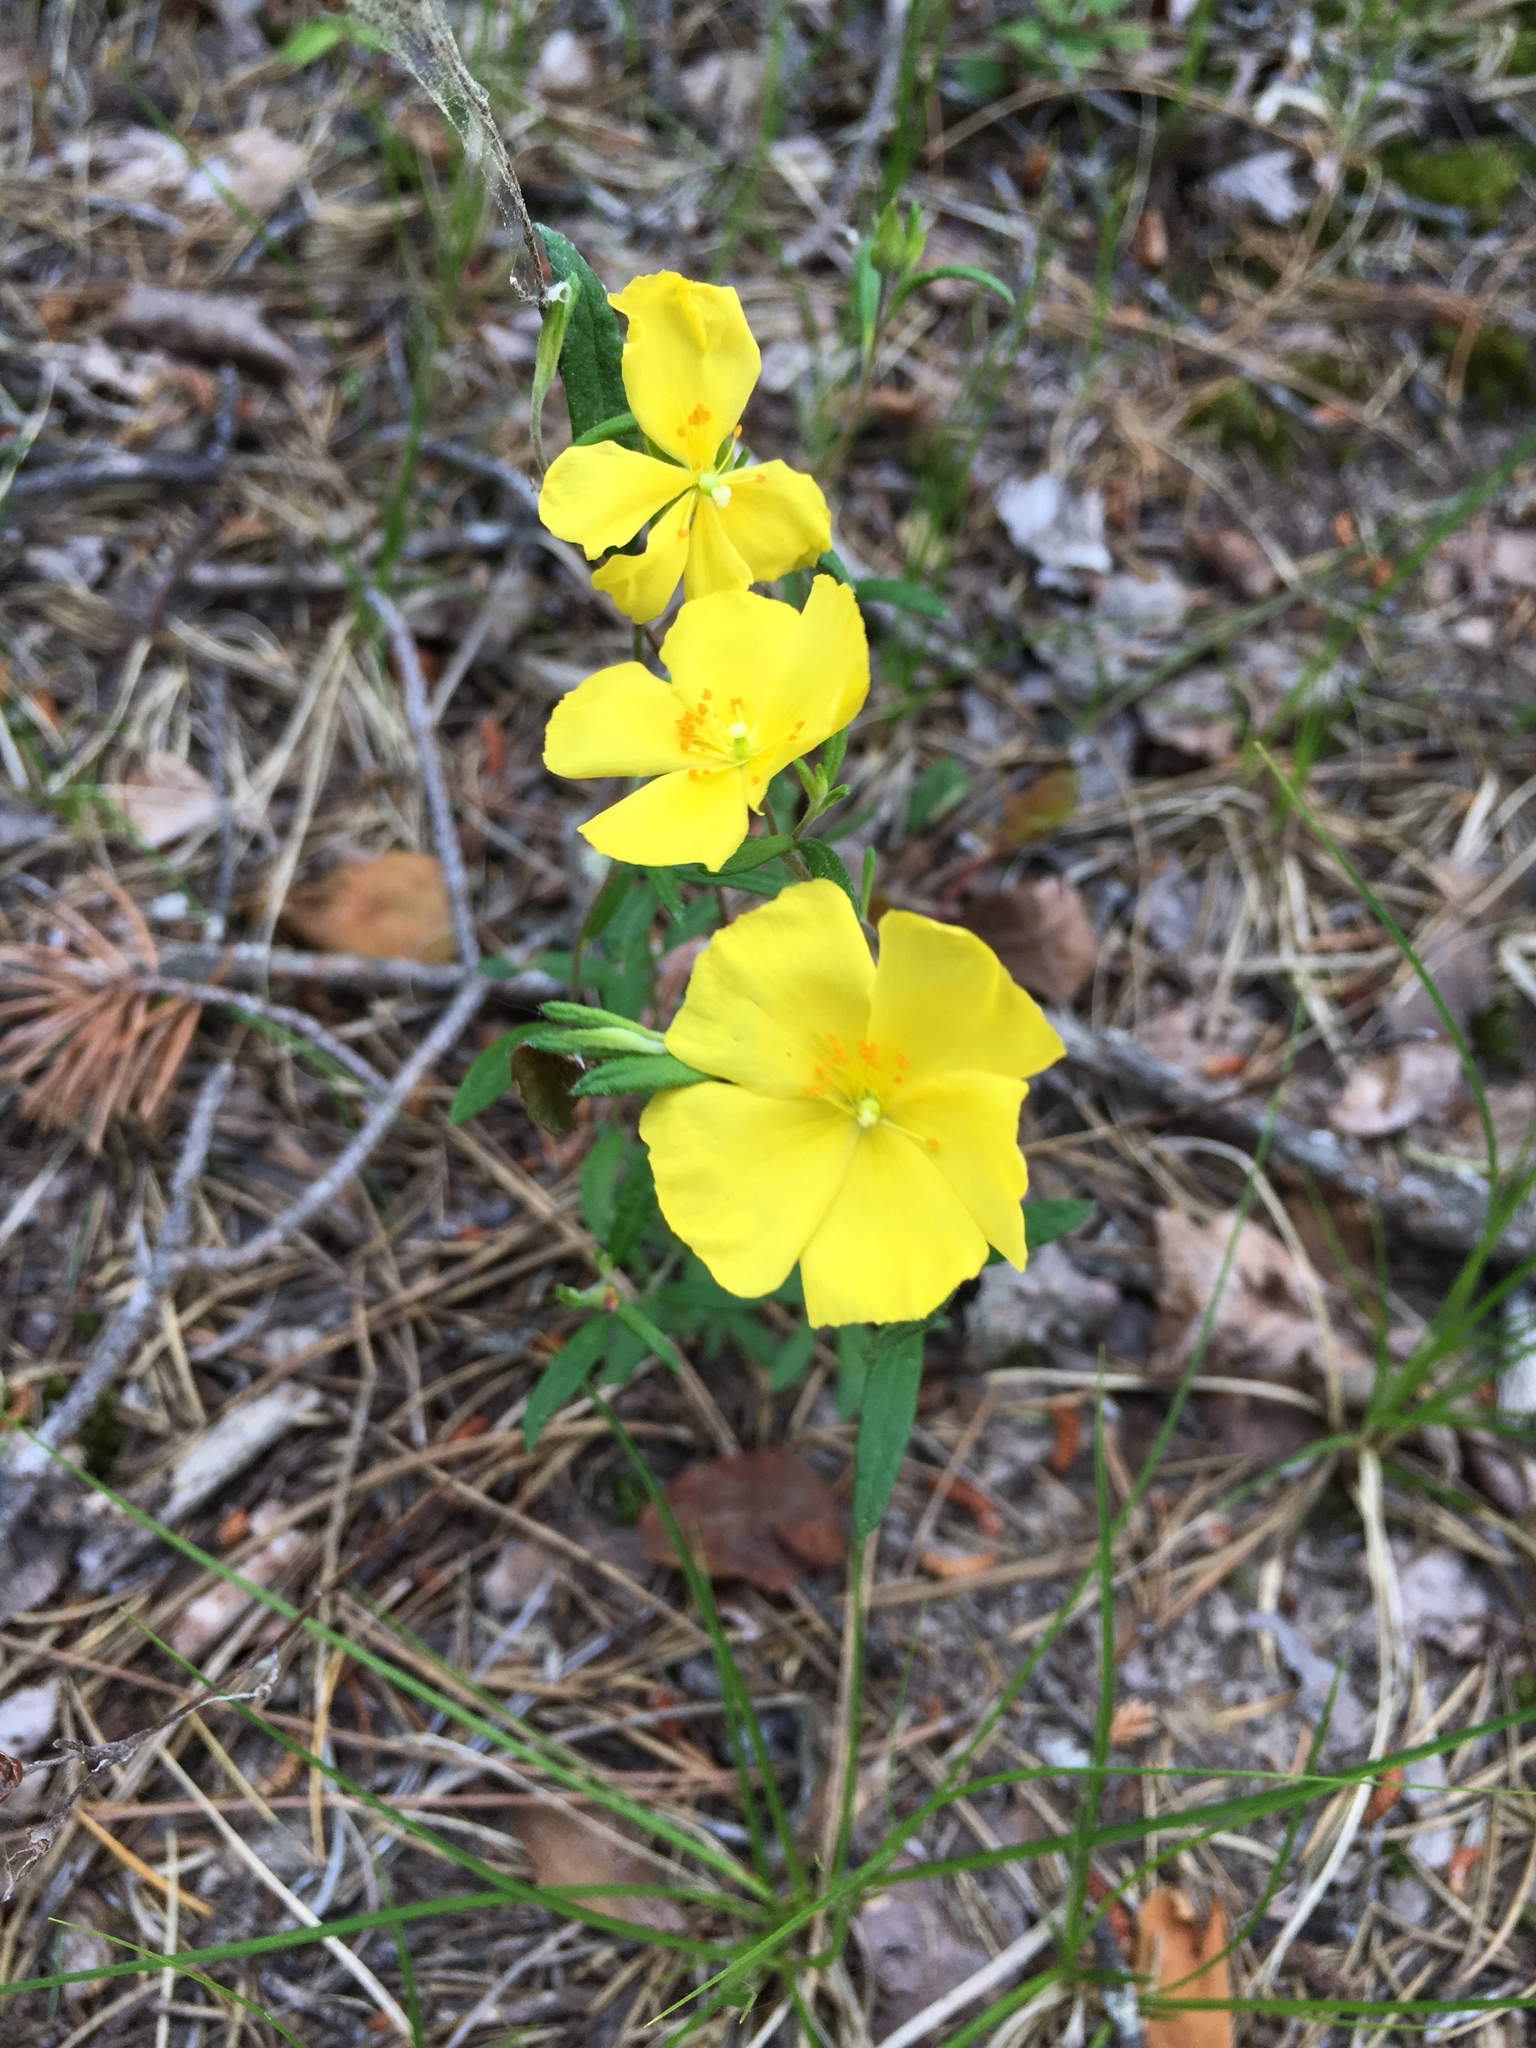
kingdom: Plantae
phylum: Tracheophyta
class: Magnoliopsida
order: Malvales
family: Cistaceae
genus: Crocanthemum
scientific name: Crocanthemum canadense
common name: Canada frostweed
